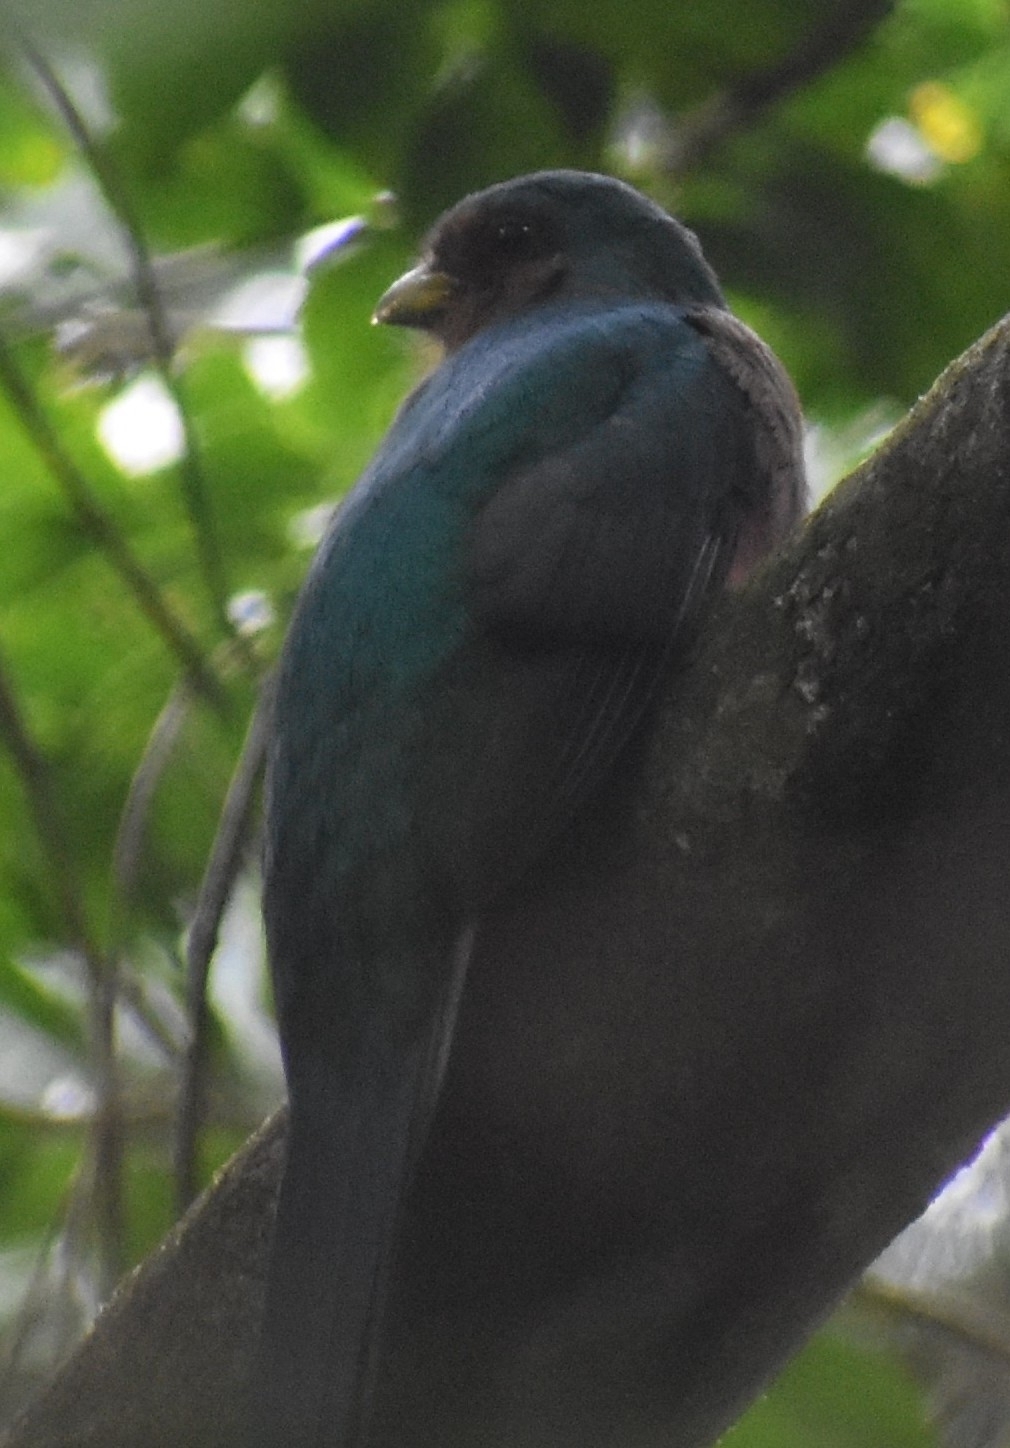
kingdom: Animalia
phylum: Chordata
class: Aves
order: Trogoniformes
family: Trogonidae
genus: Apaloderma
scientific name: Apaloderma narina
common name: Narina trogon
